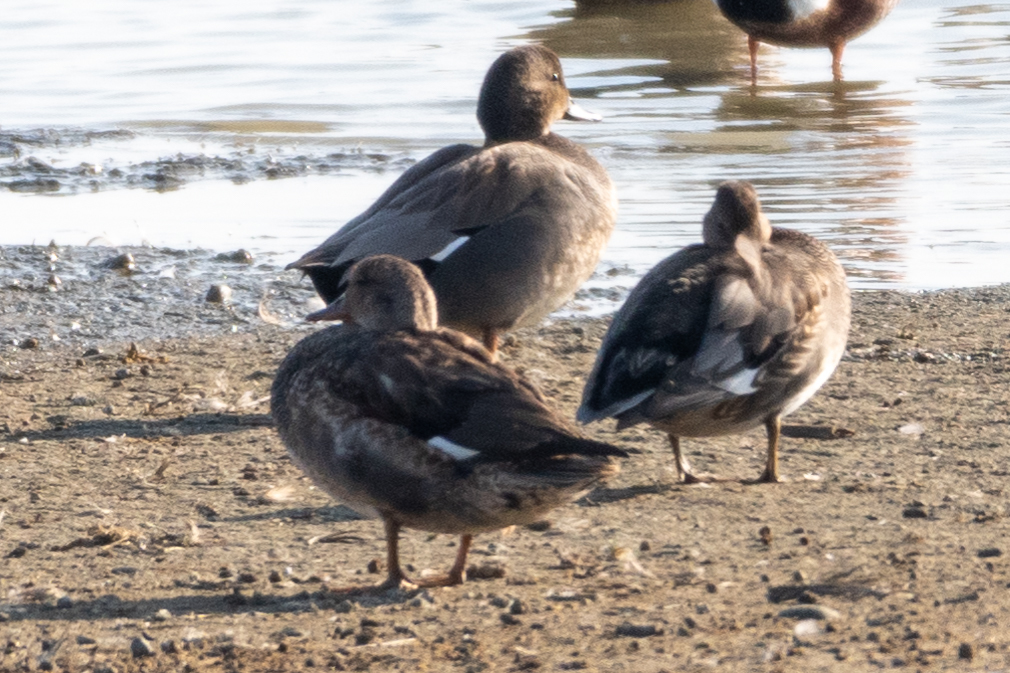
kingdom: Animalia
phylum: Chordata
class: Aves
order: Anseriformes
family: Anatidae
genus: Mareca
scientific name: Mareca strepera
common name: Gadwall
